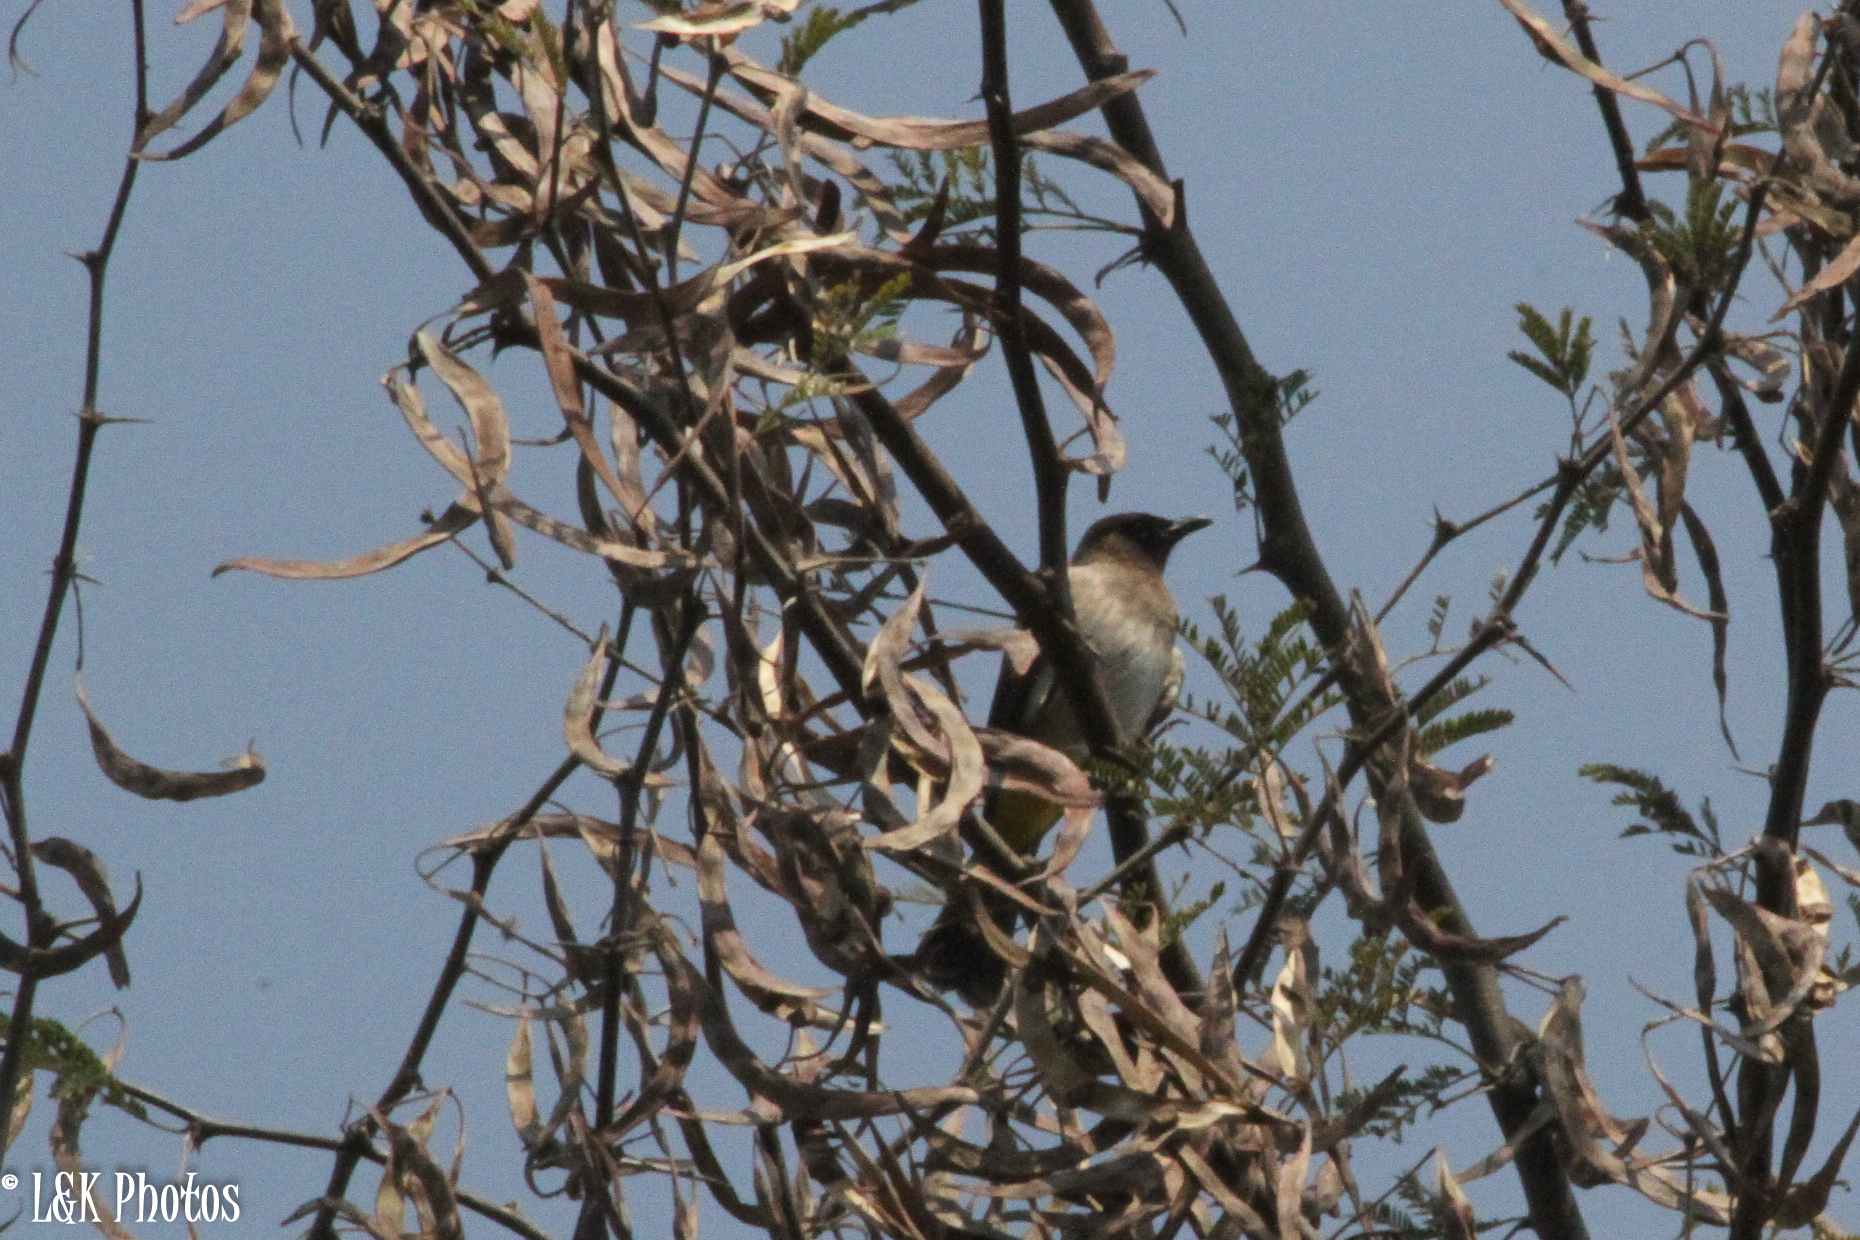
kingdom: Animalia
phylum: Chordata
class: Aves
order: Passeriformes
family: Pycnonotidae
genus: Pycnonotus
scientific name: Pycnonotus barbatus
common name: Common bulbul
